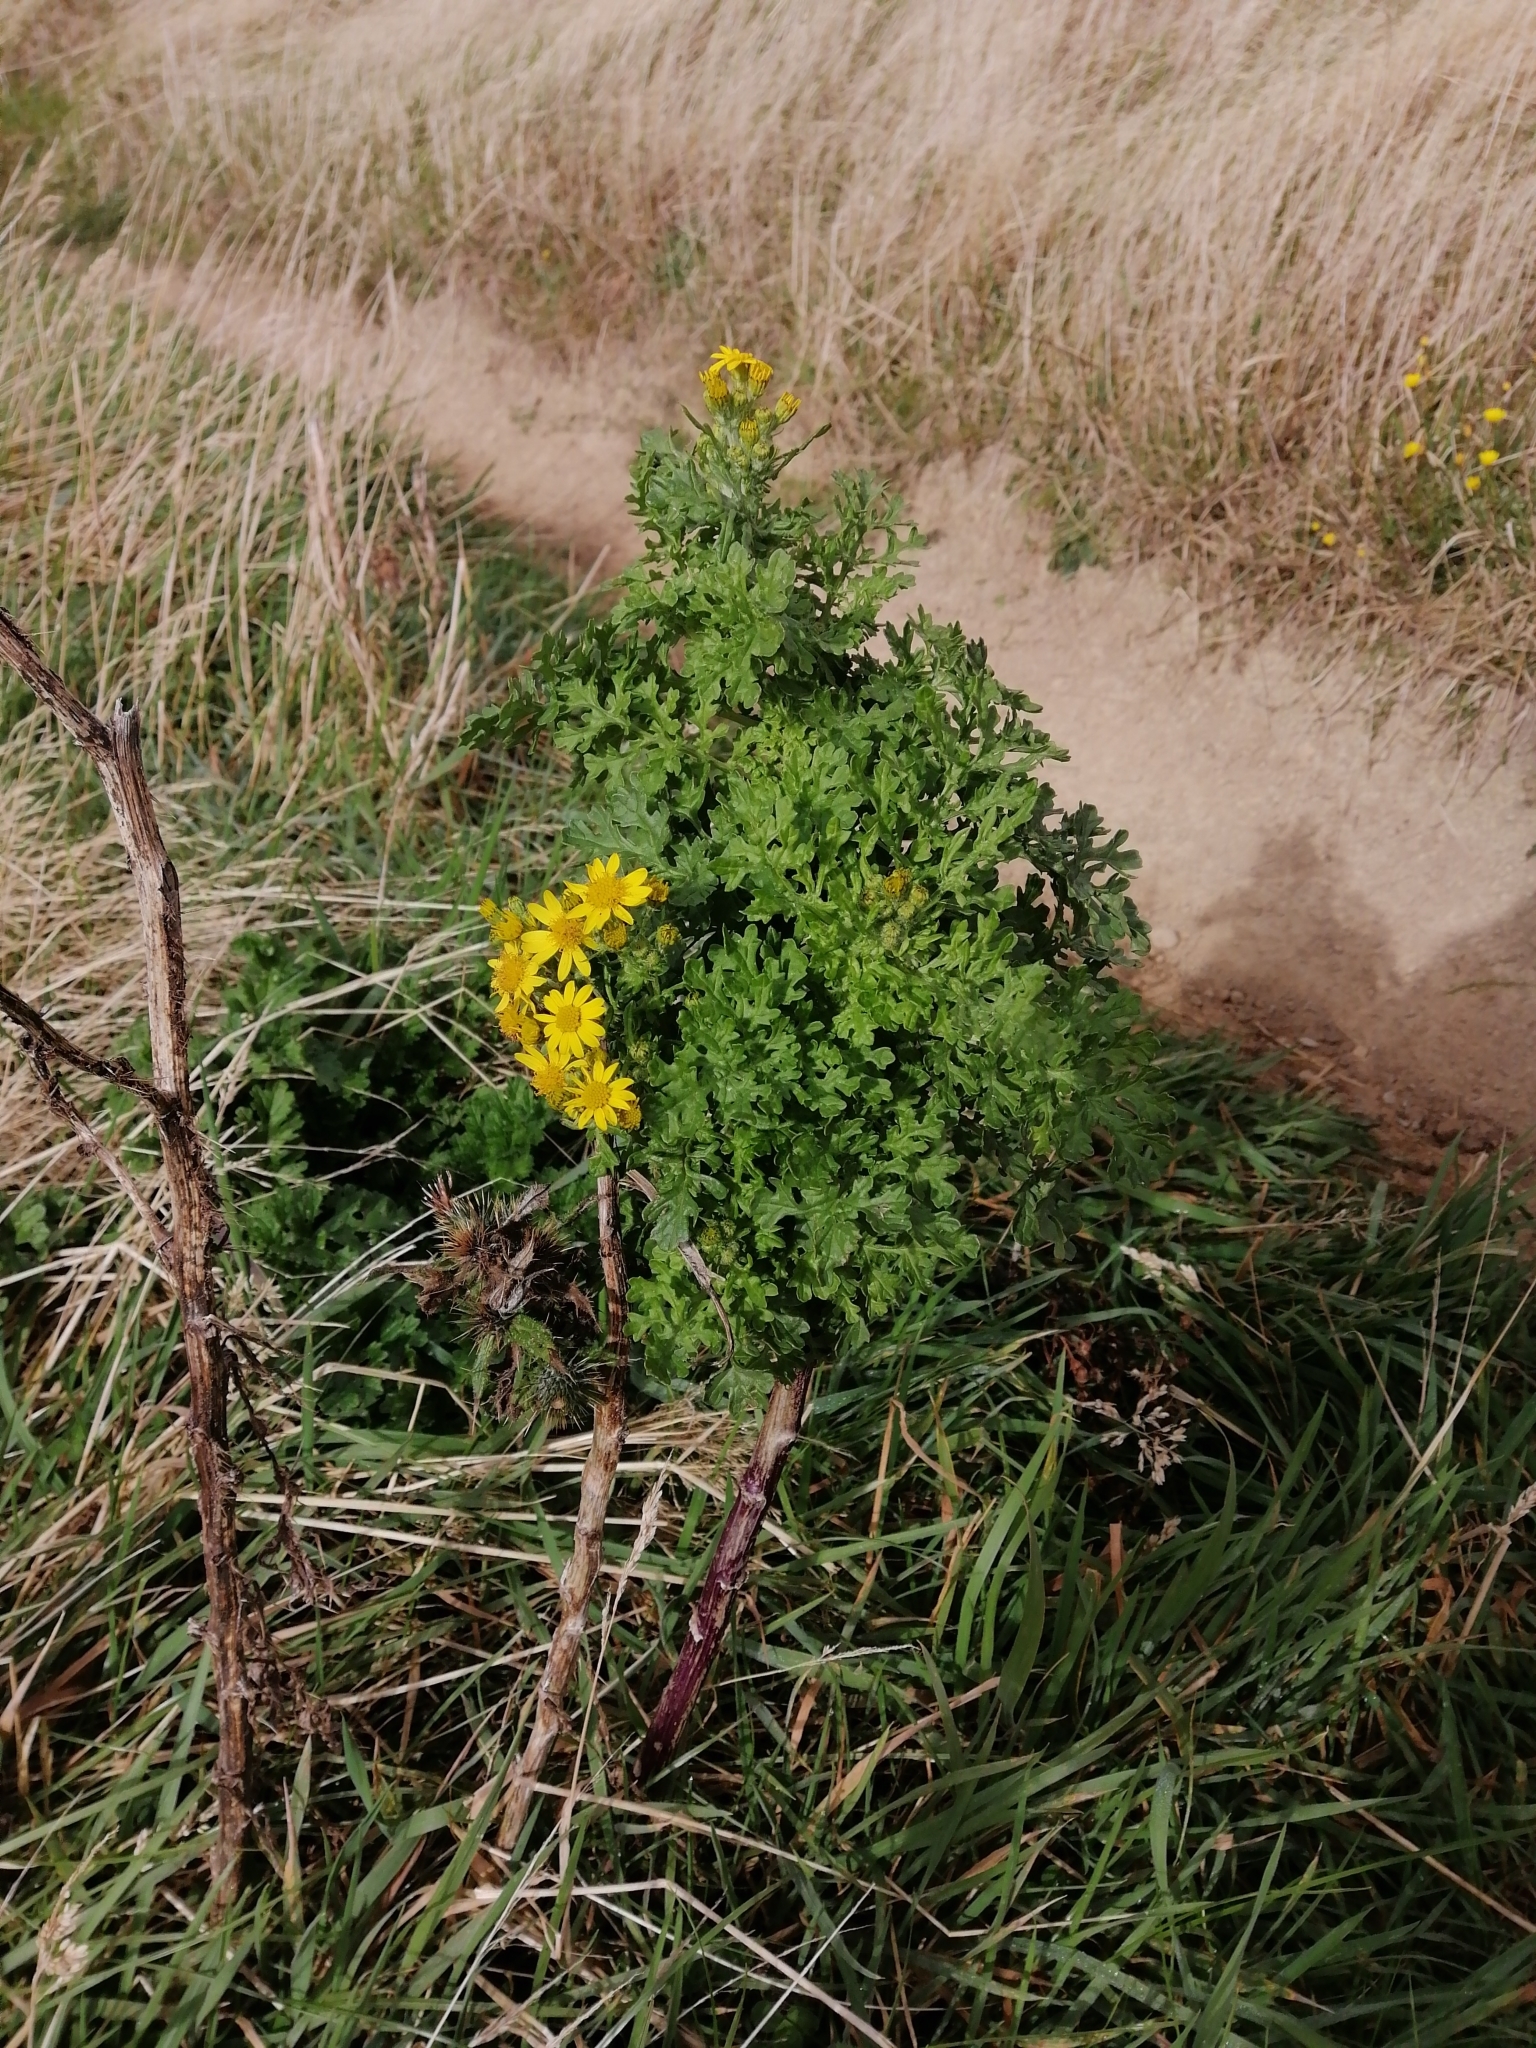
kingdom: Plantae
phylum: Tracheophyta
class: Magnoliopsida
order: Asterales
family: Asteraceae
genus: Jacobaea
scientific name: Jacobaea vulgaris
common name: Stinking willie
